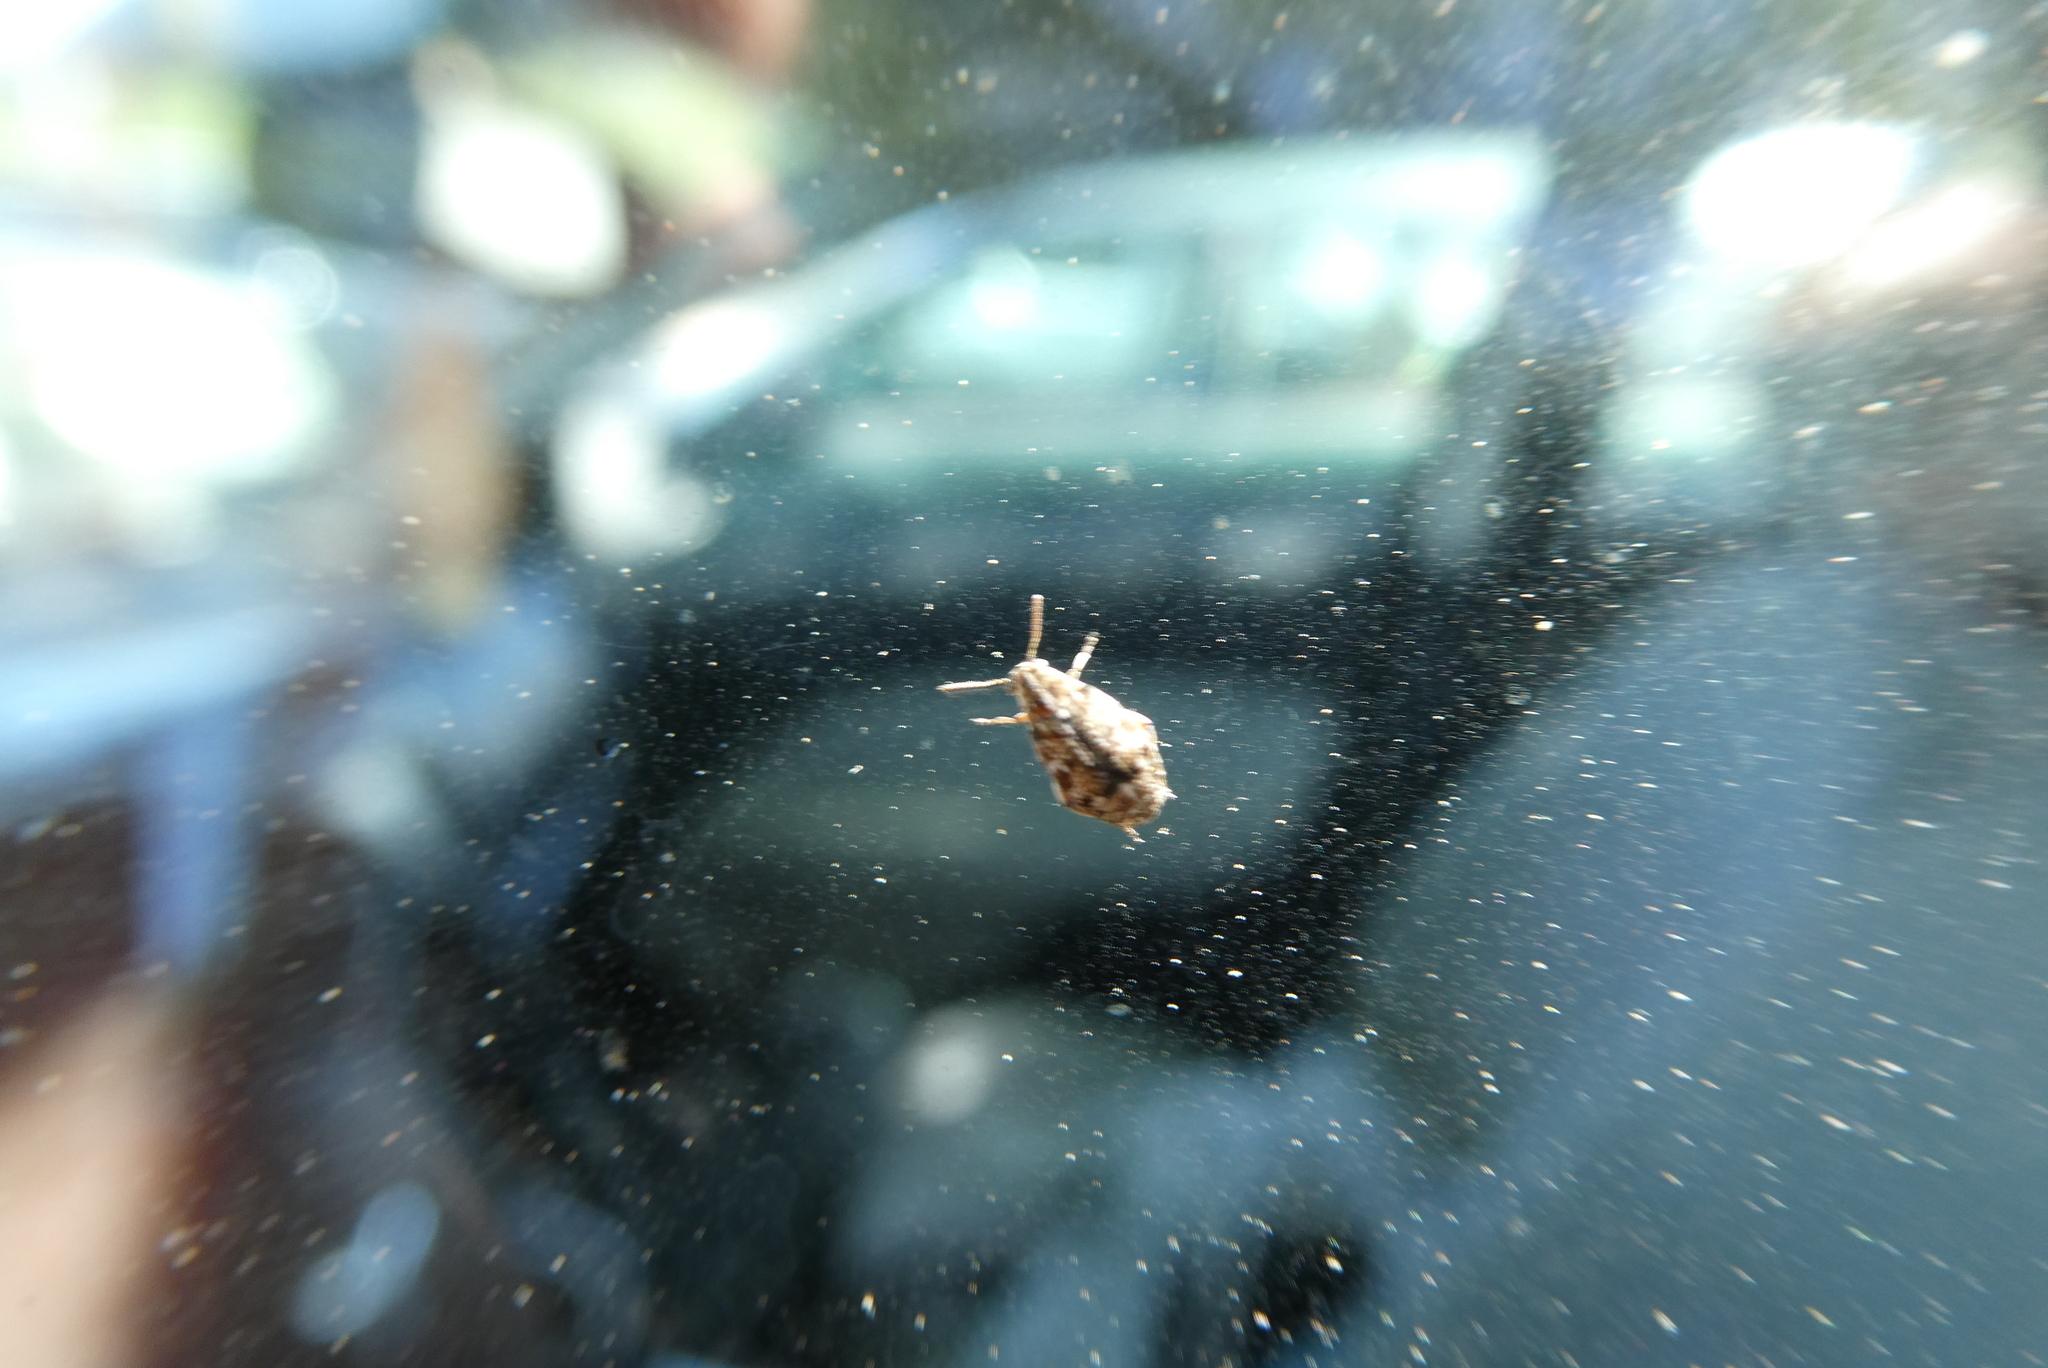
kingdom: Animalia
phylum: Arthropoda
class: Insecta
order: Coleoptera
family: Chrysomelidae
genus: Algarobius
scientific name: Algarobius prosopis
